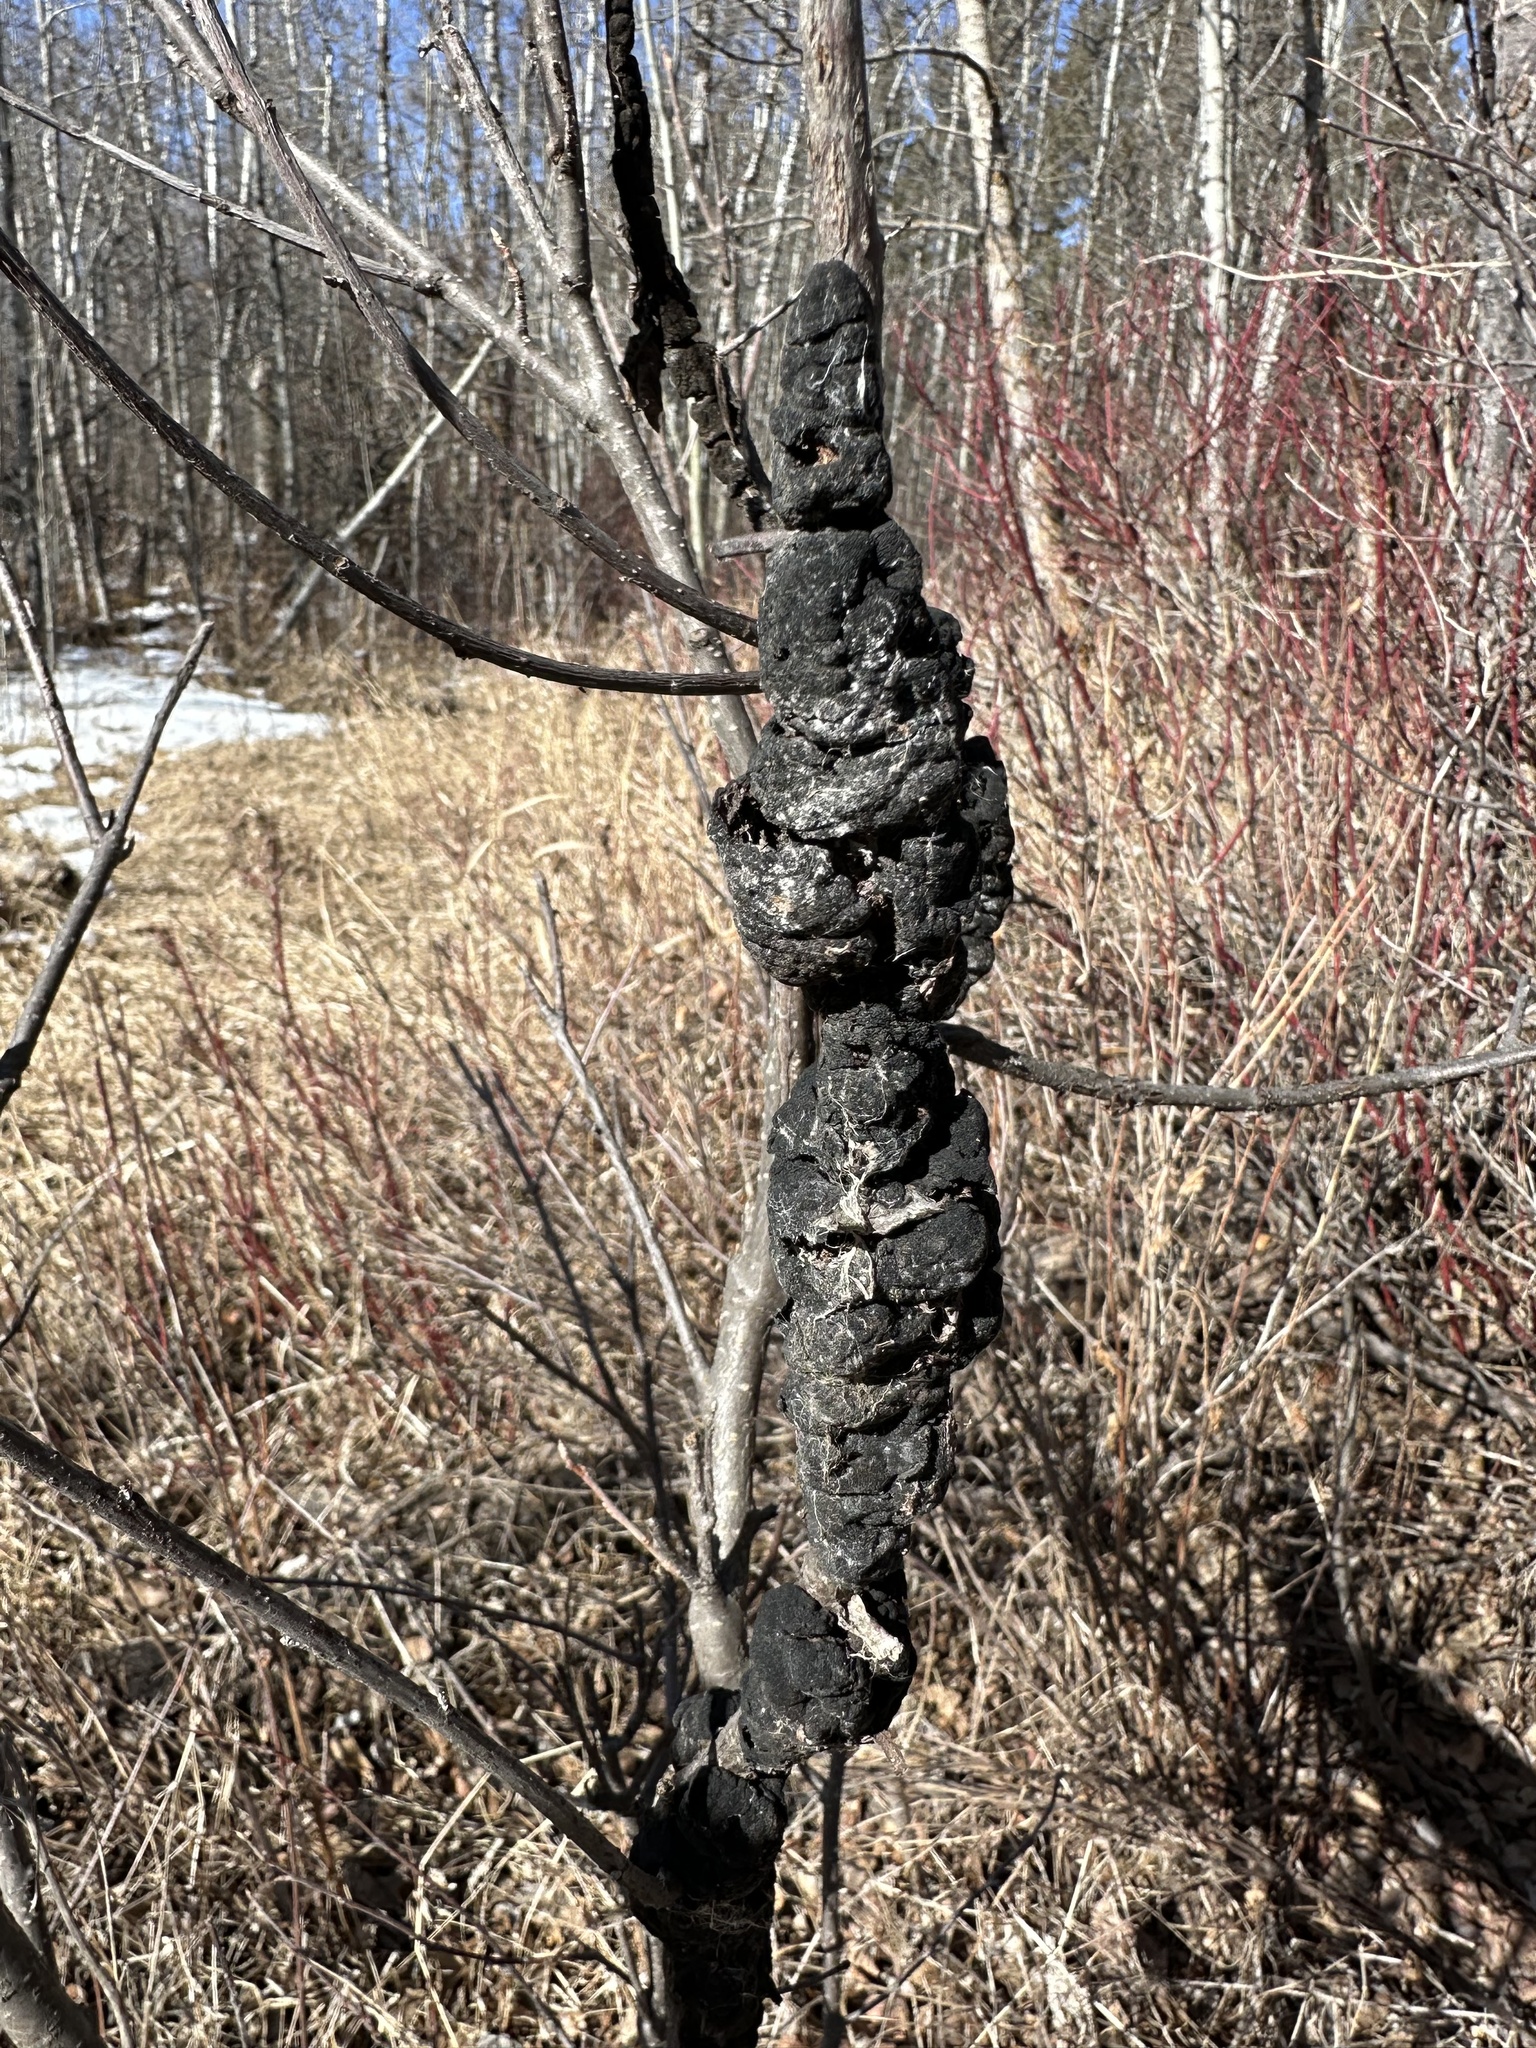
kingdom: Fungi
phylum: Ascomycota
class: Dothideomycetes
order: Venturiales
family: Venturiaceae
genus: Apiosporina
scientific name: Apiosporina morbosa
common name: Black knot
